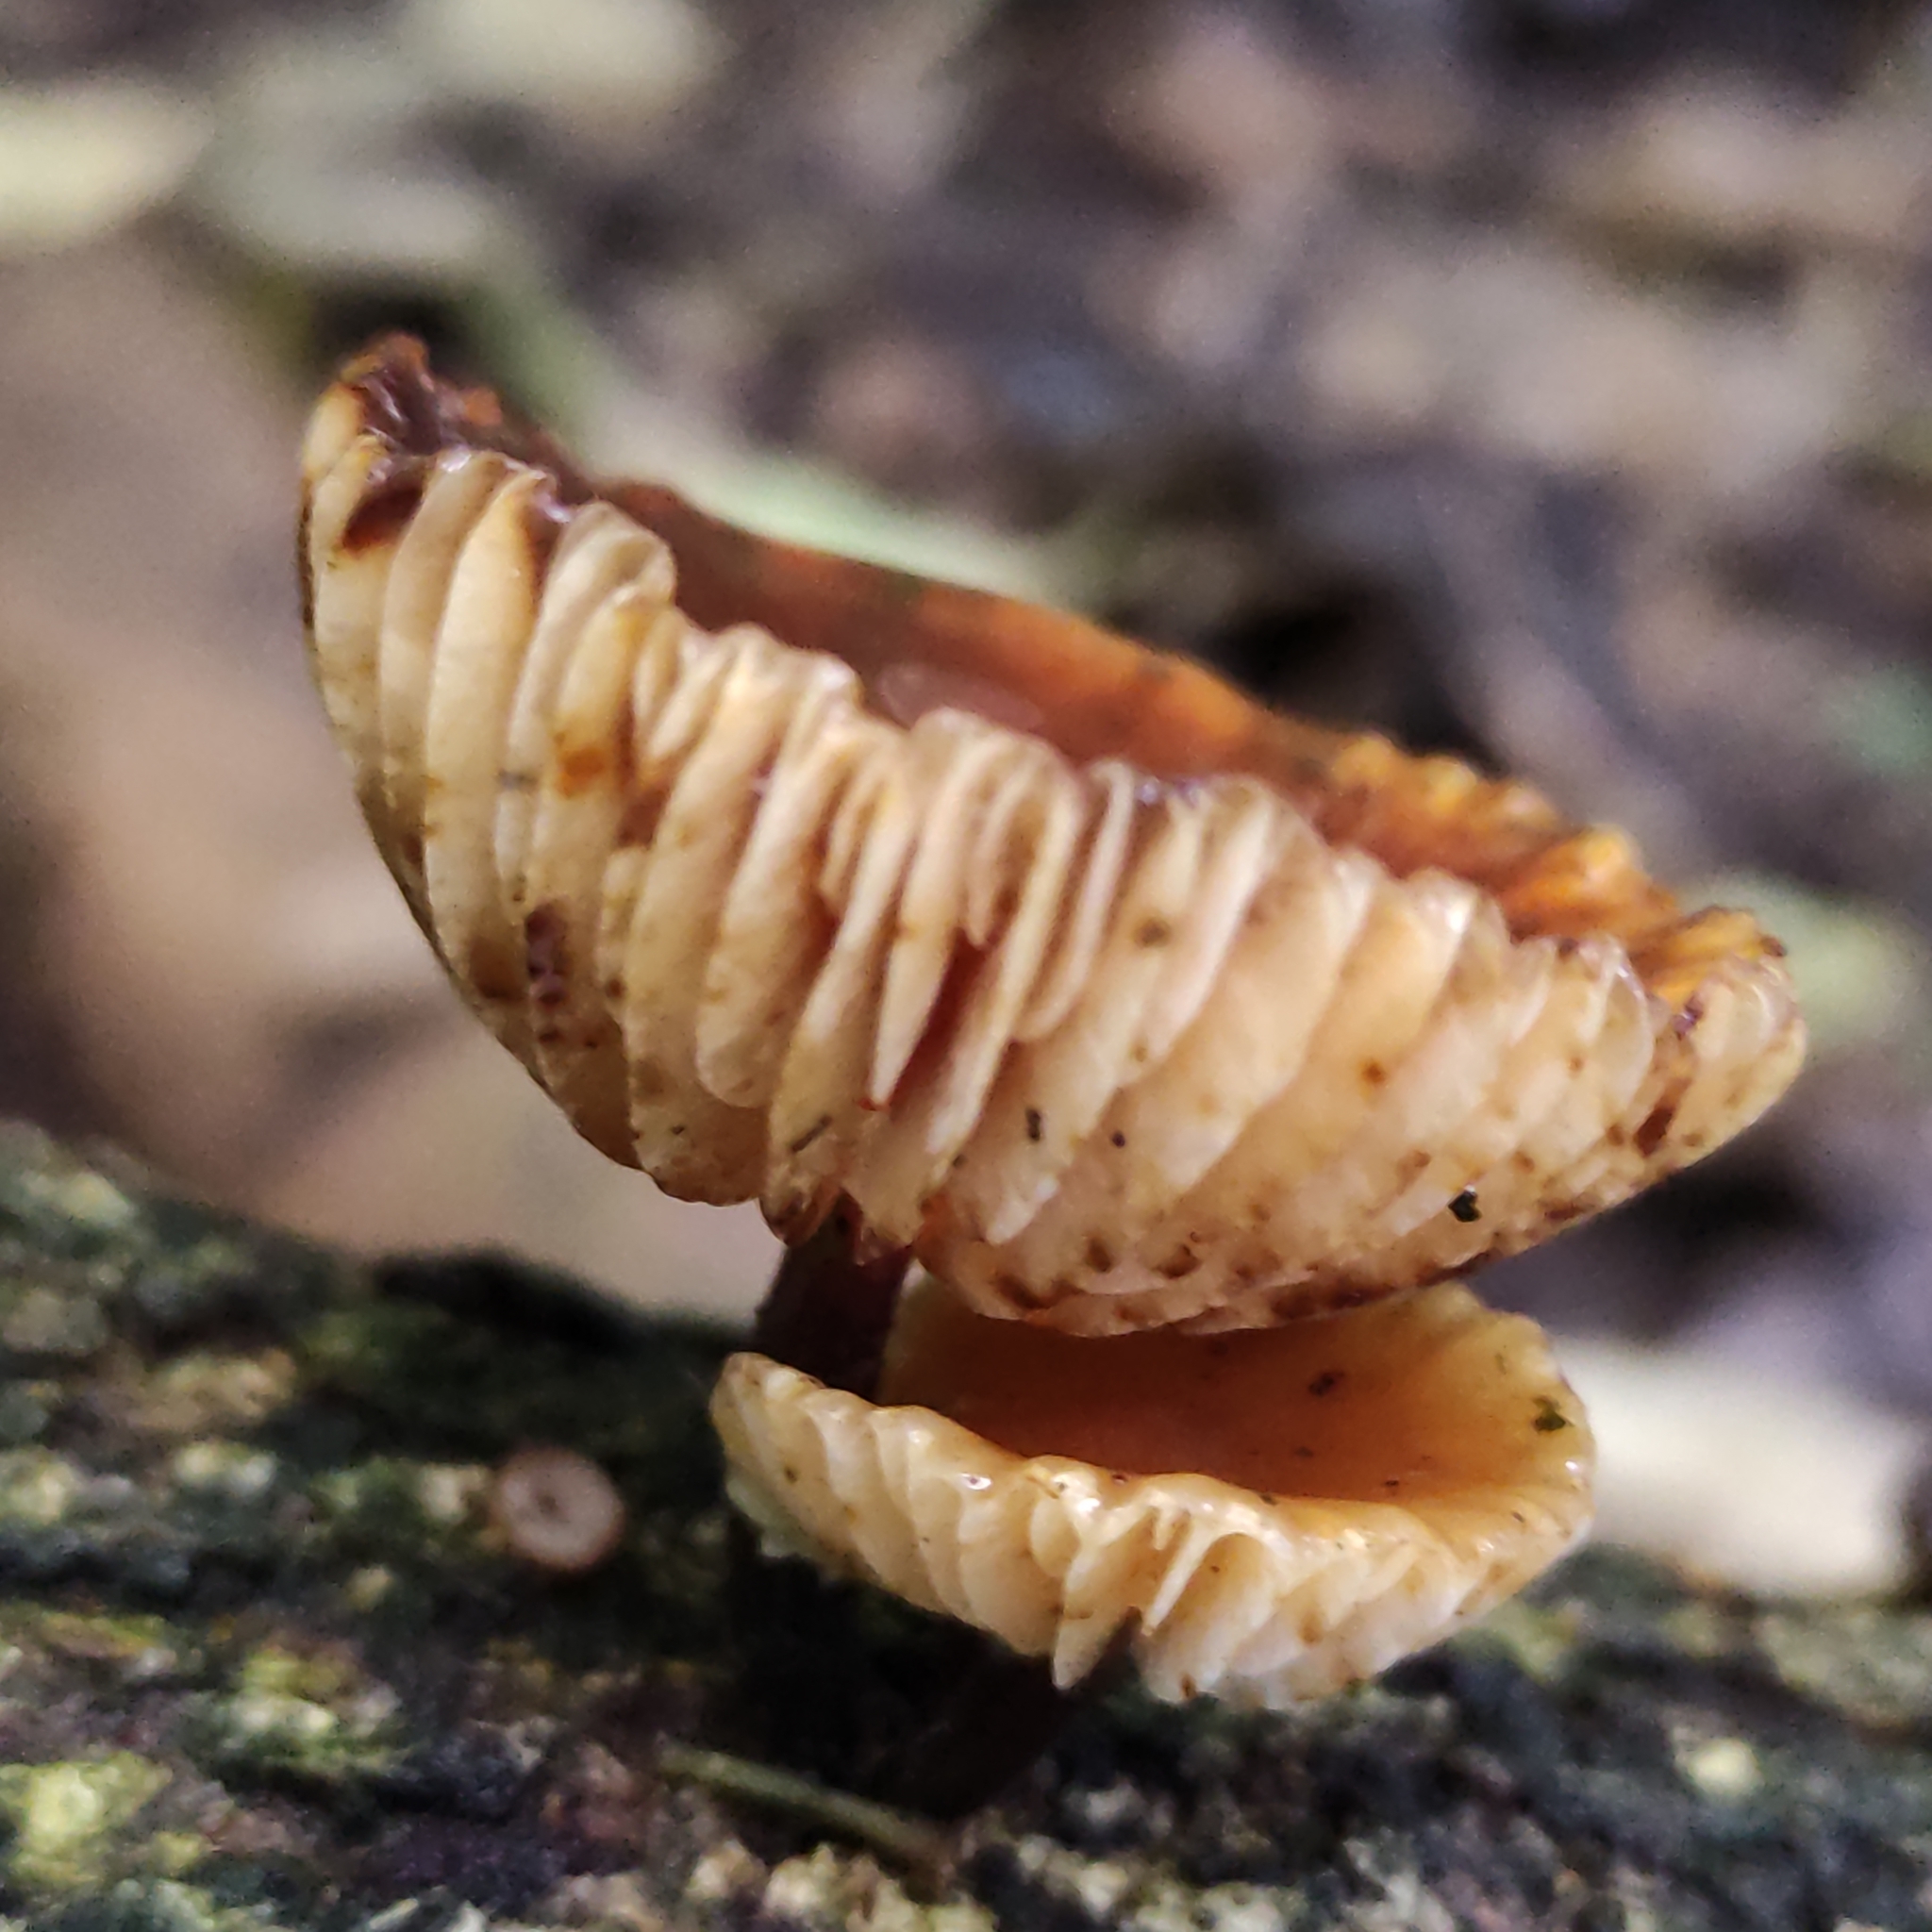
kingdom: Fungi
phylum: Basidiomycota
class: Agaricomycetes
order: Agaricales
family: Physalacriaceae
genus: Flammulina
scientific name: Flammulina velutipes
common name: Velvet shank
